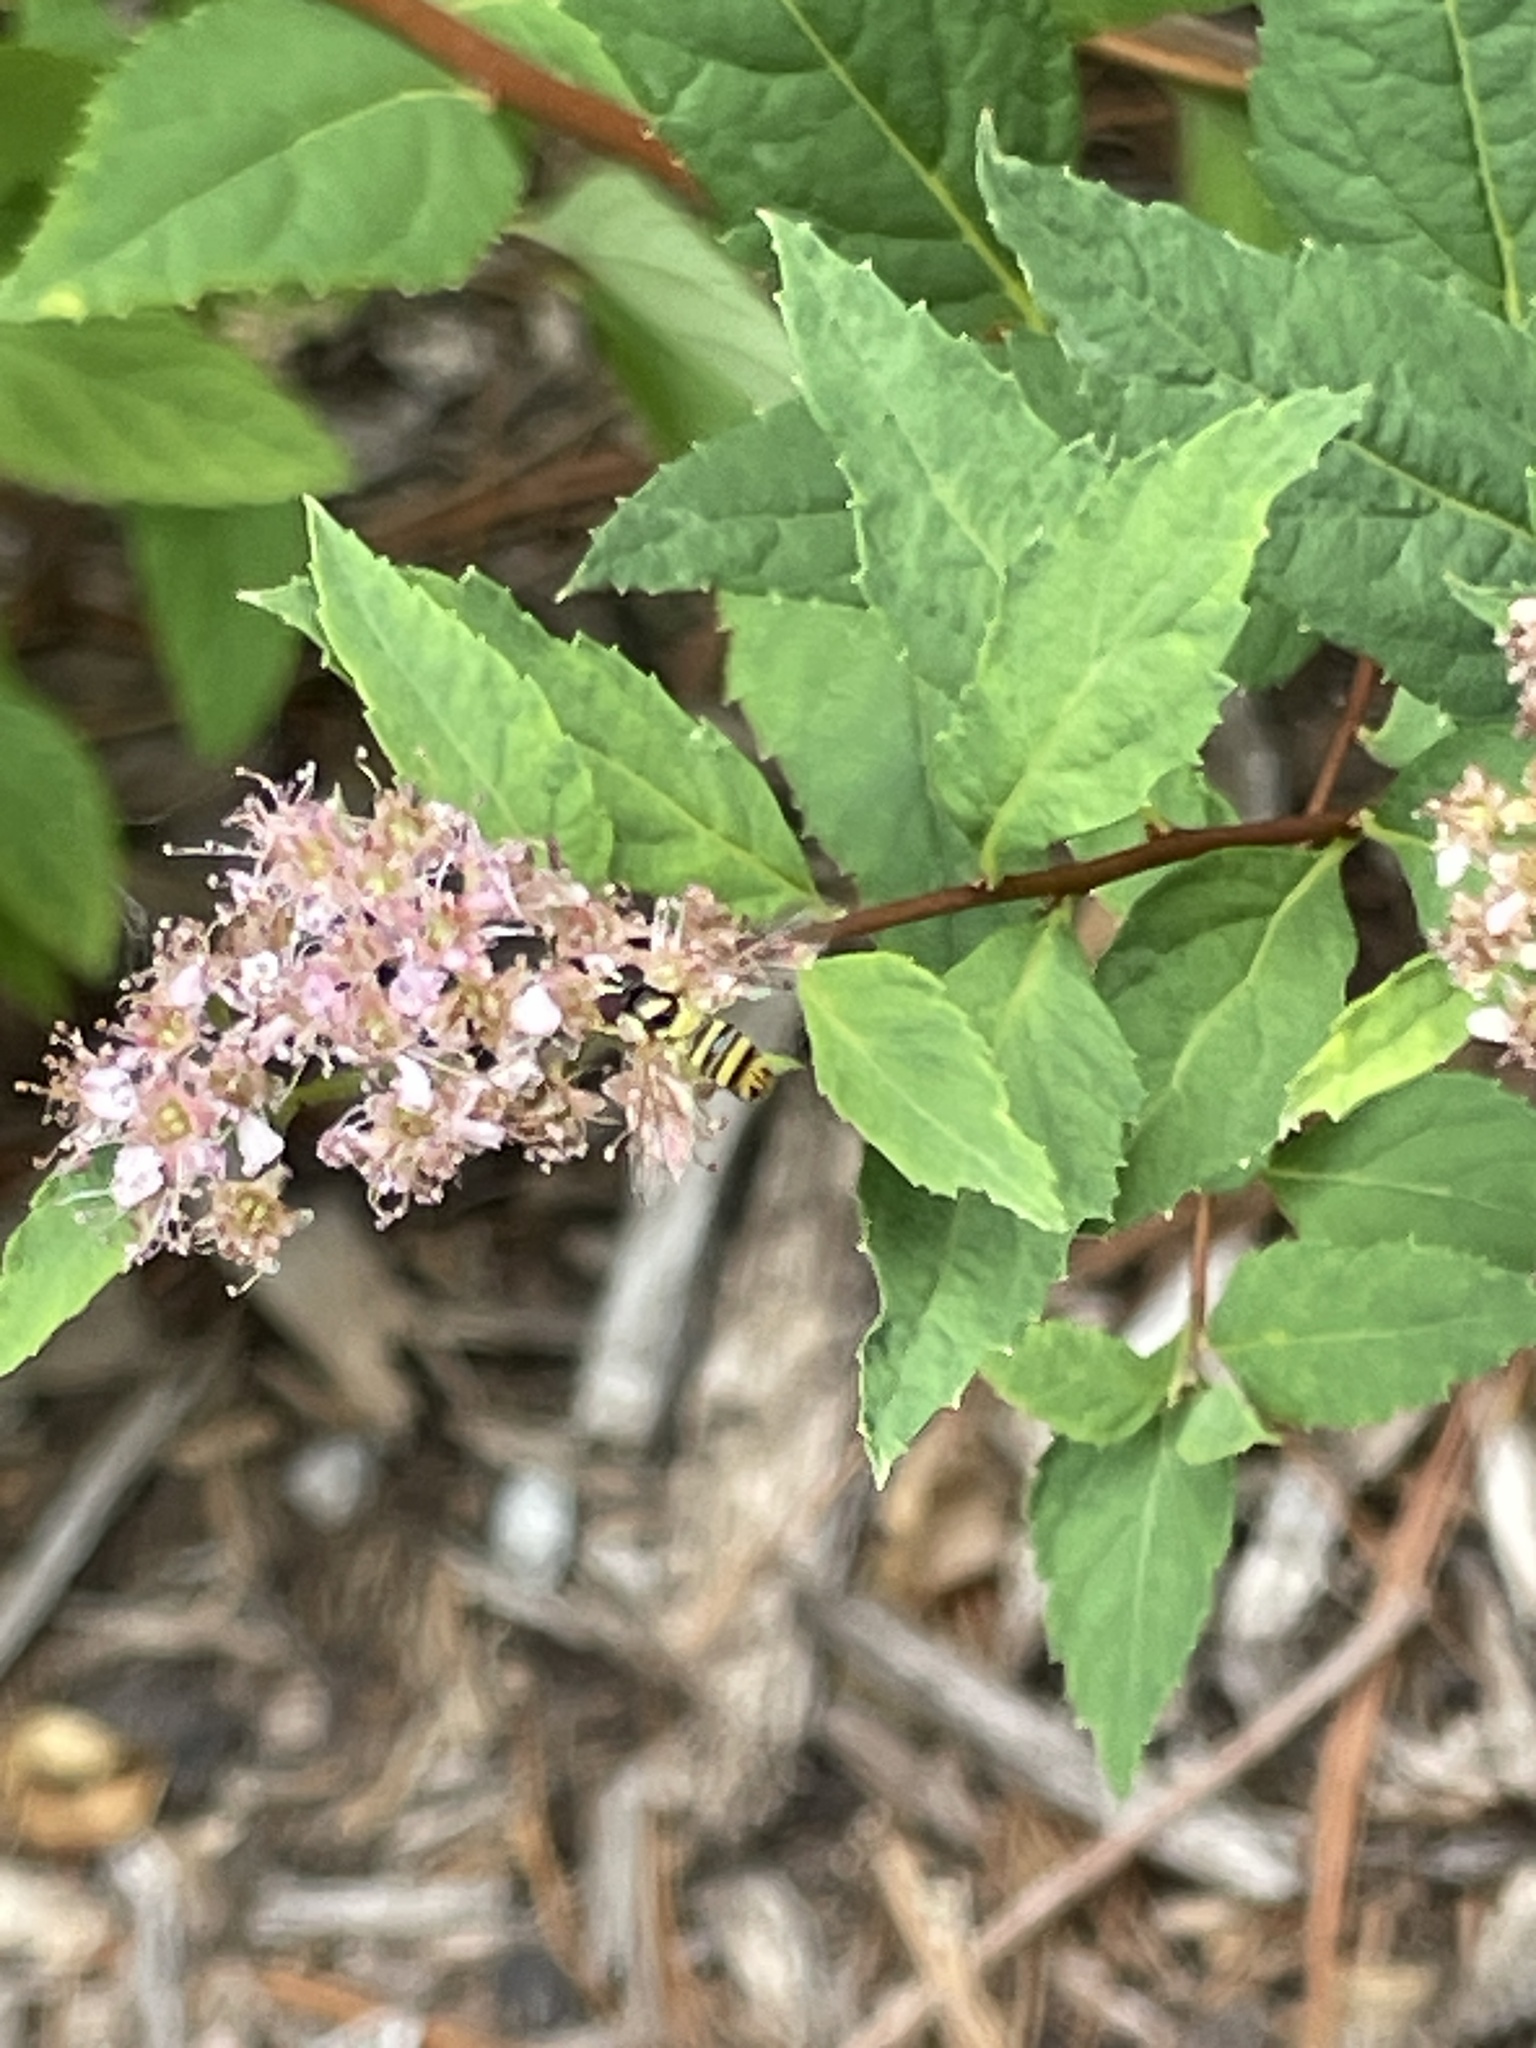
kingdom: Animalia
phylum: Arthropoda
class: Insecta
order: Diptera
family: Syrphidae
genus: Allograpta
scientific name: Allograpta obliqua
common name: Common oblique syrphid
